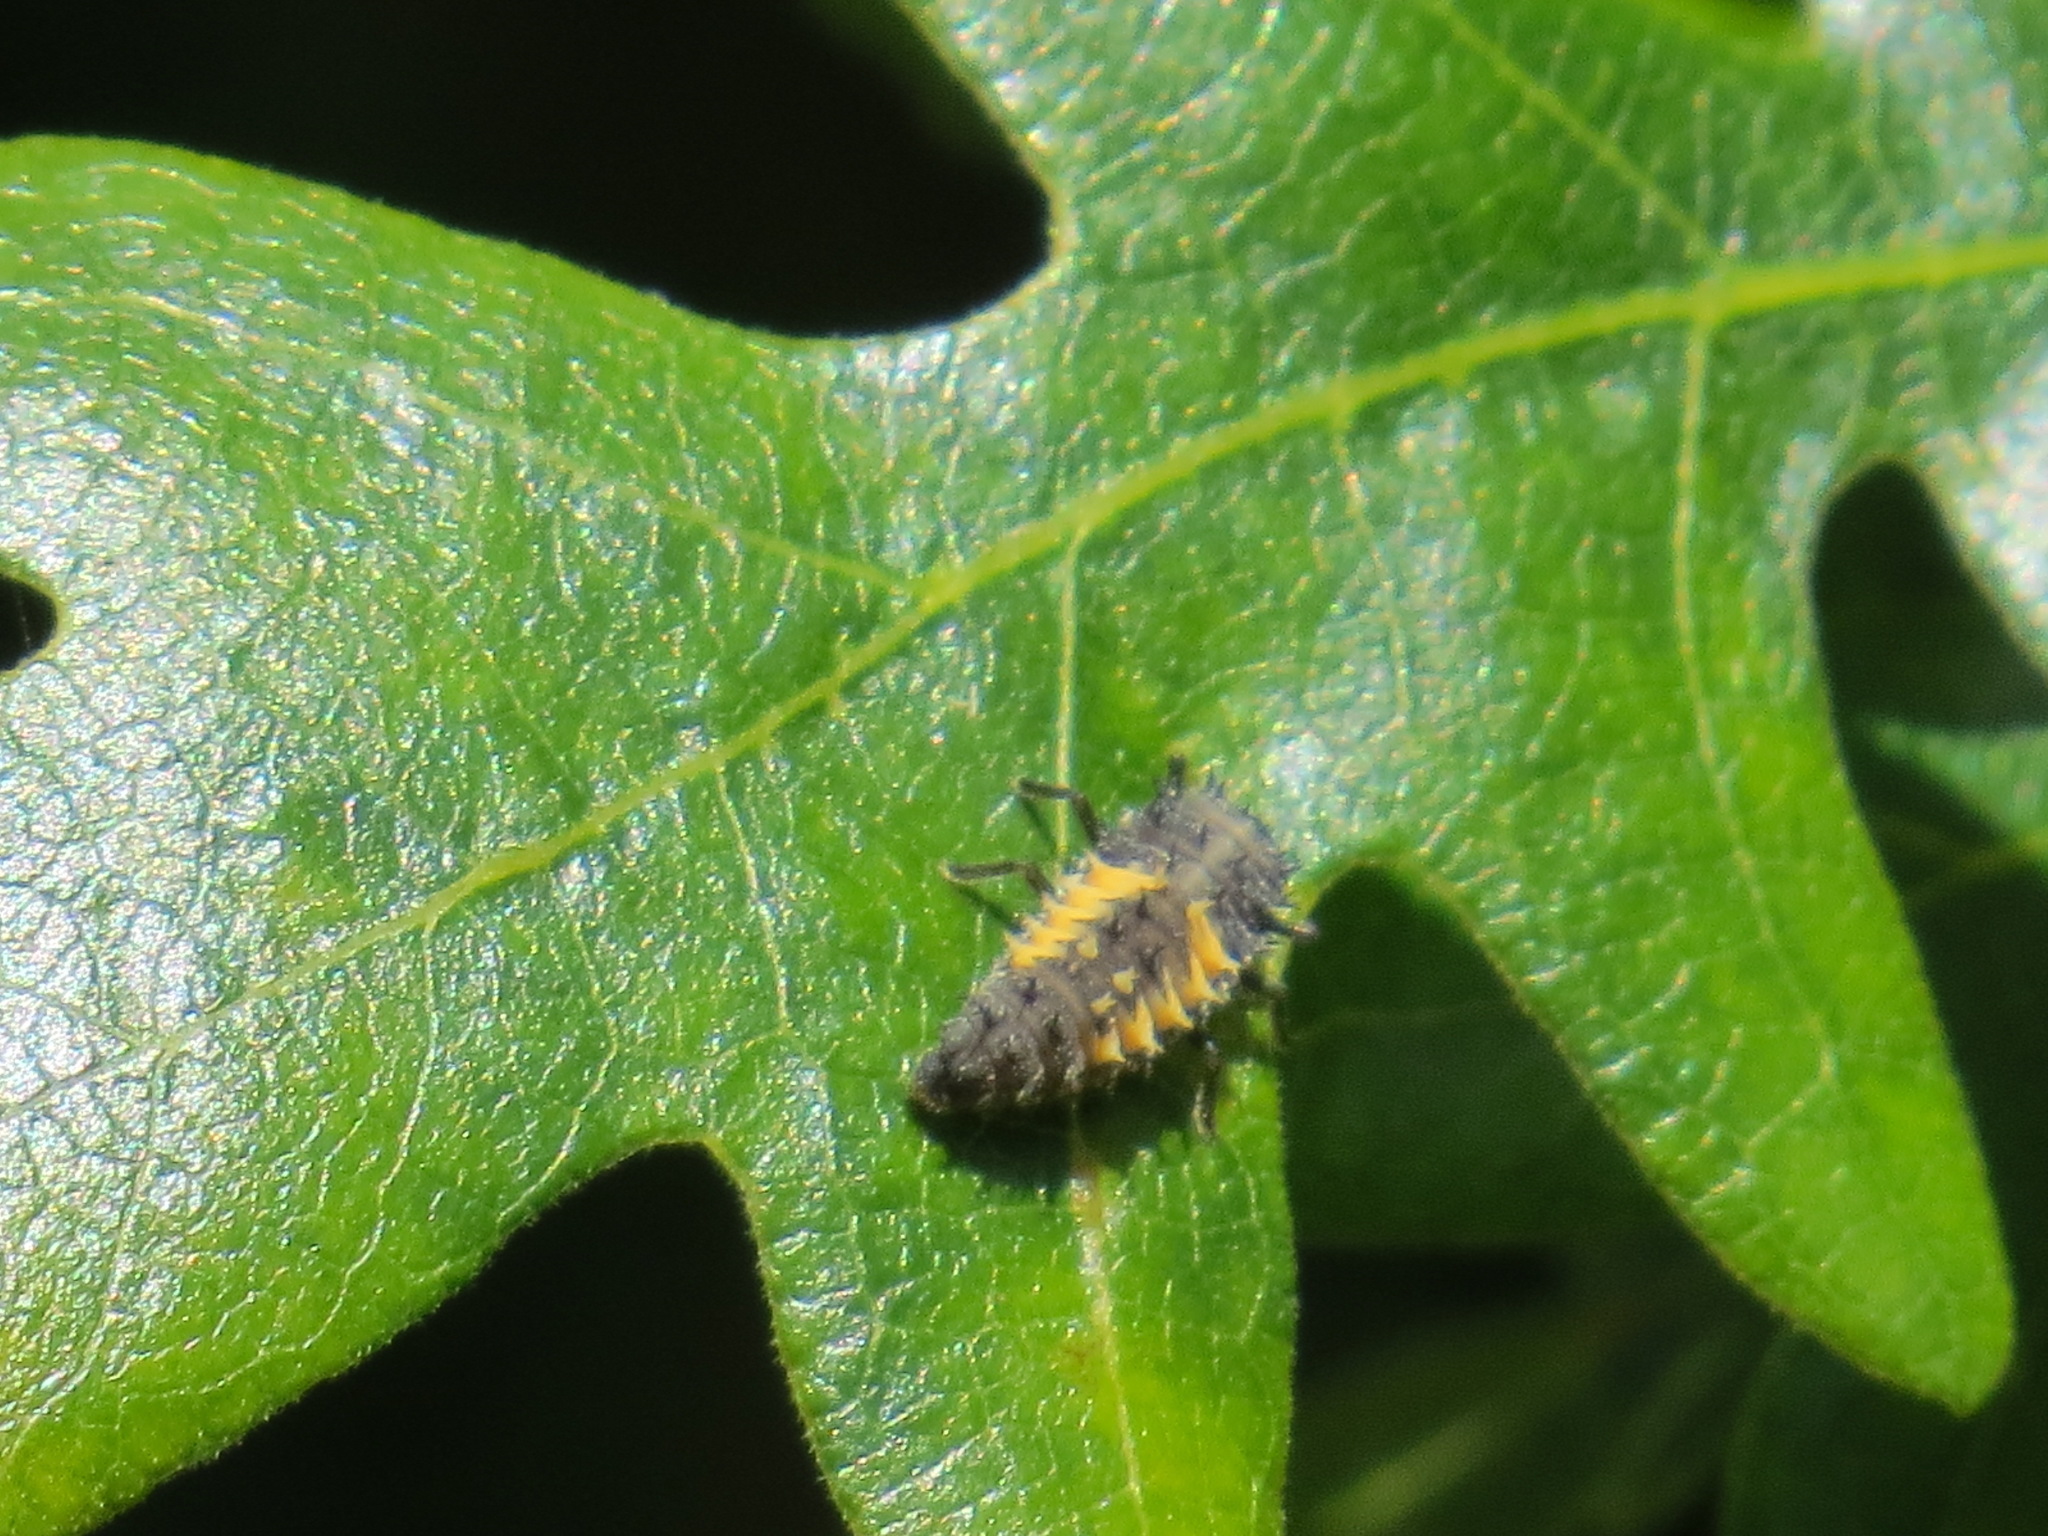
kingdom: Animalia
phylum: Arthropoda
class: Insecta
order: Coleoptera
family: Coccinellidae
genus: Harmonia
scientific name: Harmonia axyridis
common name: Harlequin ladybird
